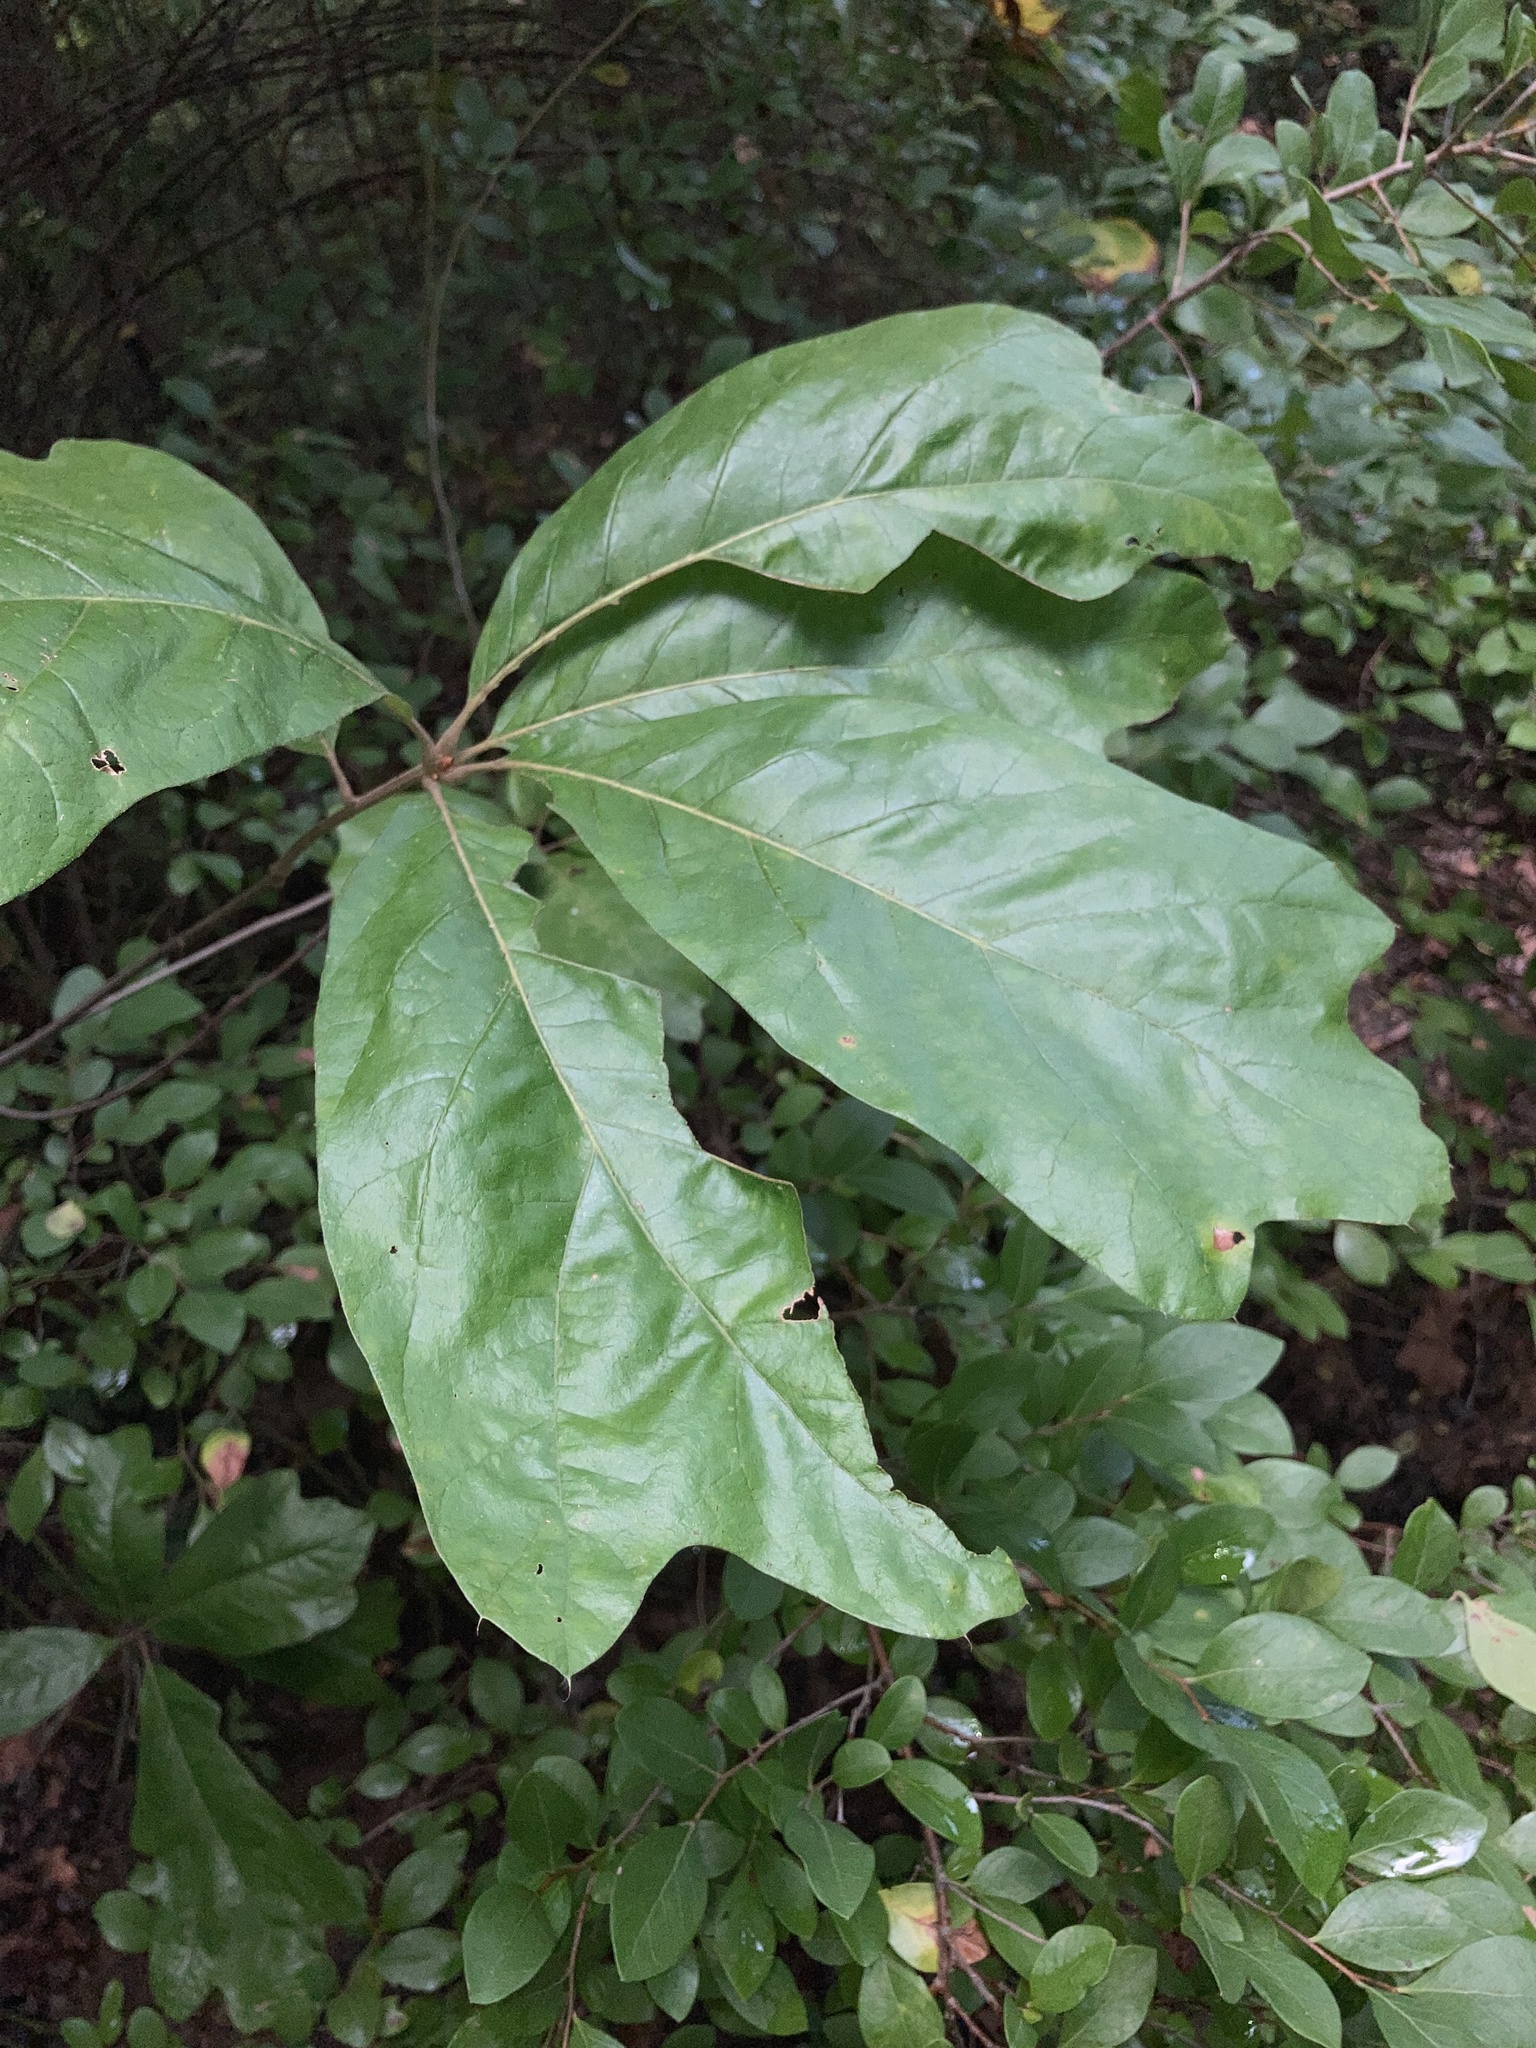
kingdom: Plantae
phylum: Tracheophyta
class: Magnoliopsida
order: Fagales
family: Fagaceae
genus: Quercus
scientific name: Quercus falcata
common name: Southern red oak
